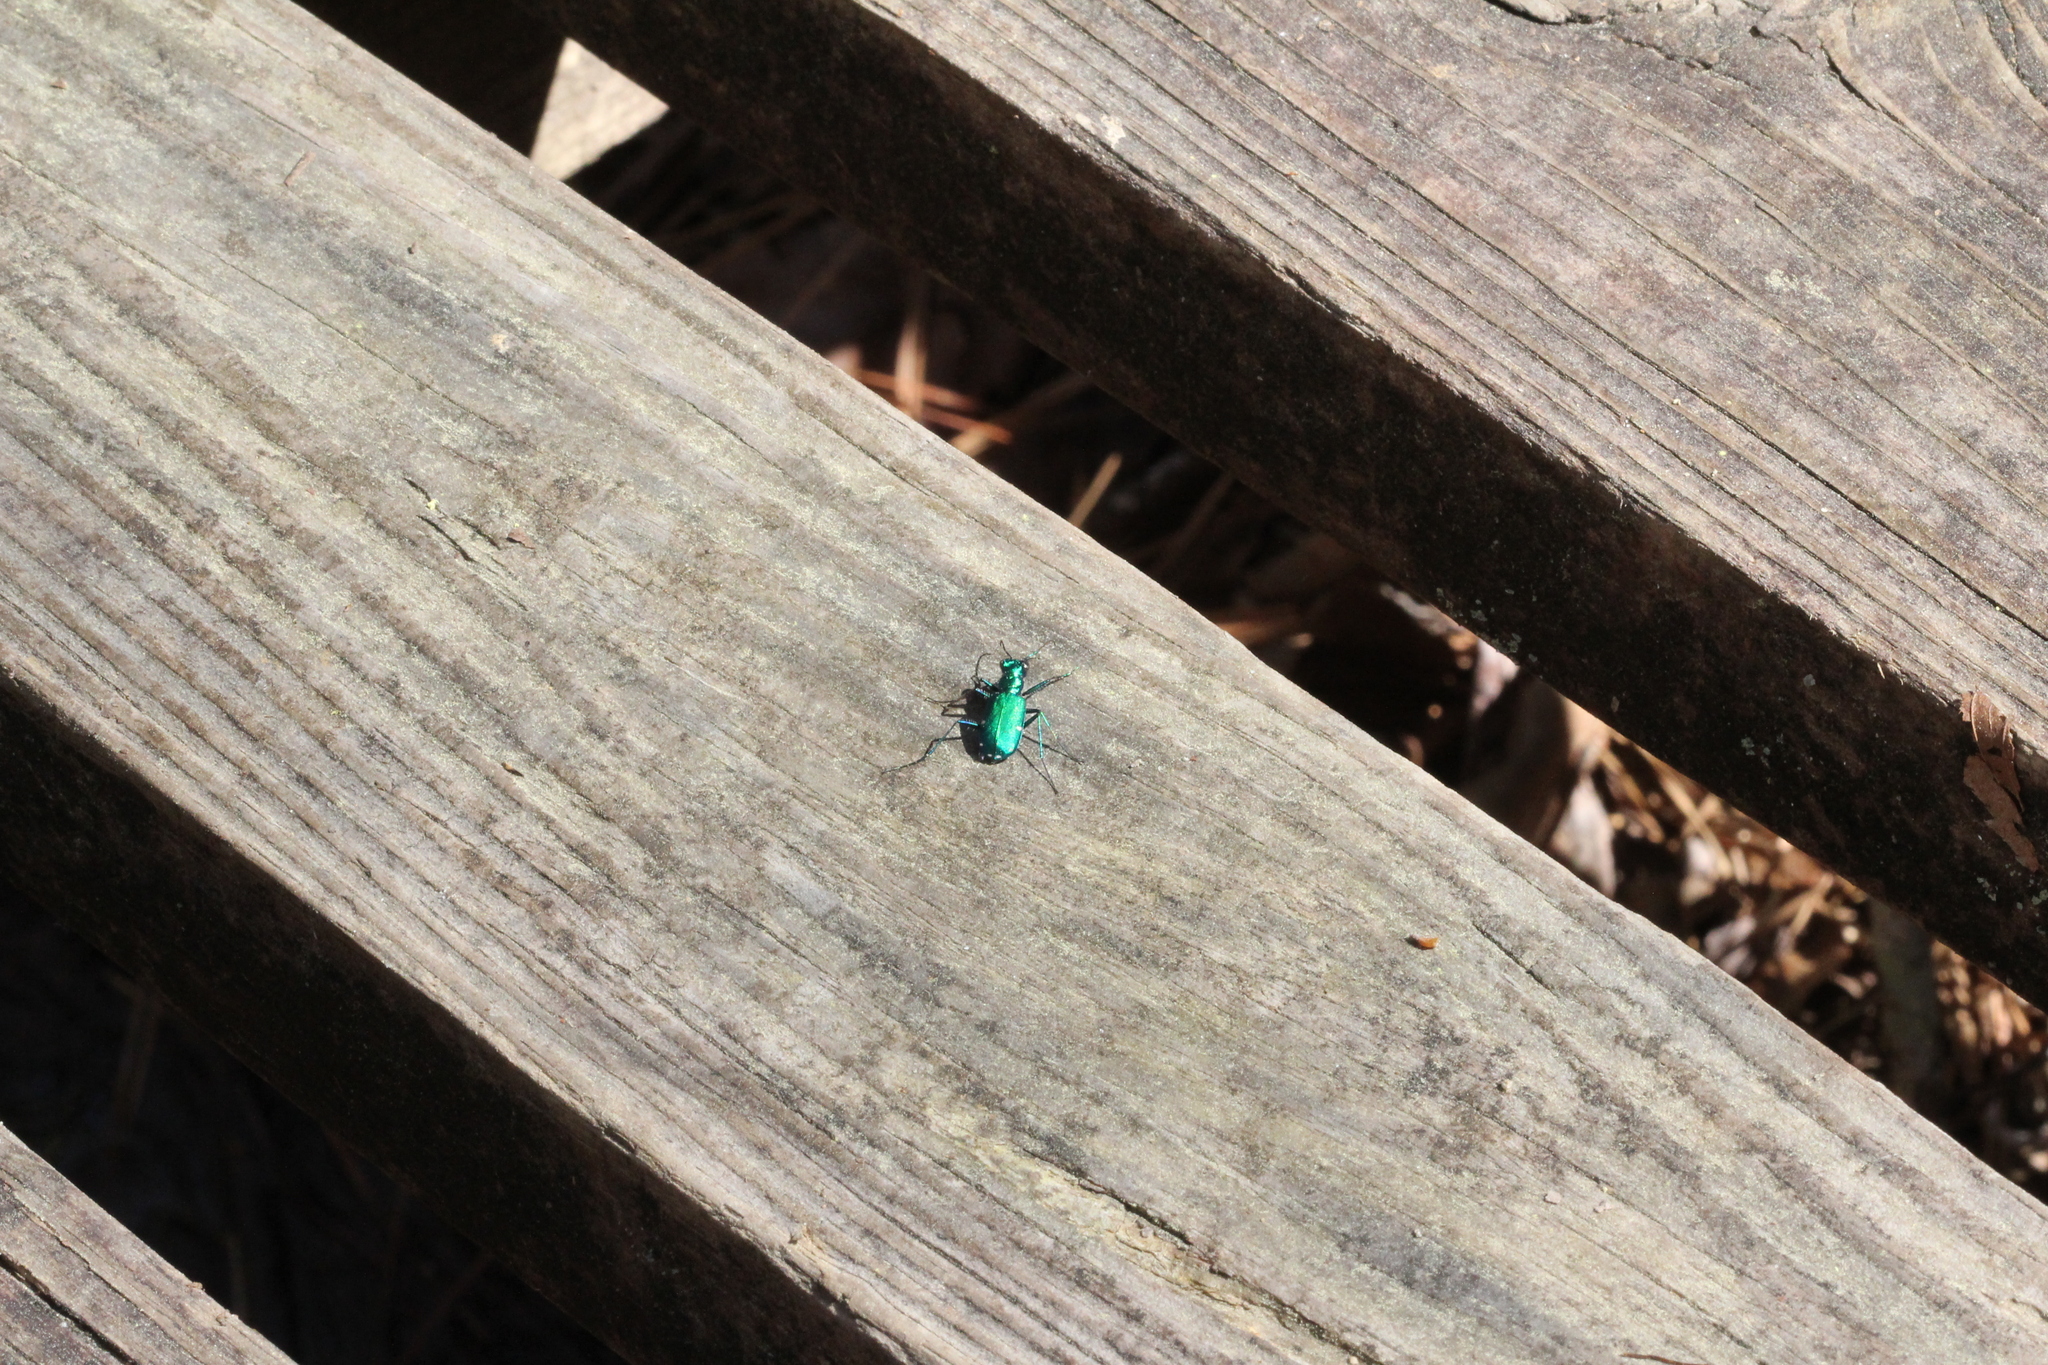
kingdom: Animalia
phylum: Arthropoda
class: Insecta
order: Coleoptera
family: Carabidae
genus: Cicindela
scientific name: Cicindela sexguttata
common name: Six-spotted tiger beetle
